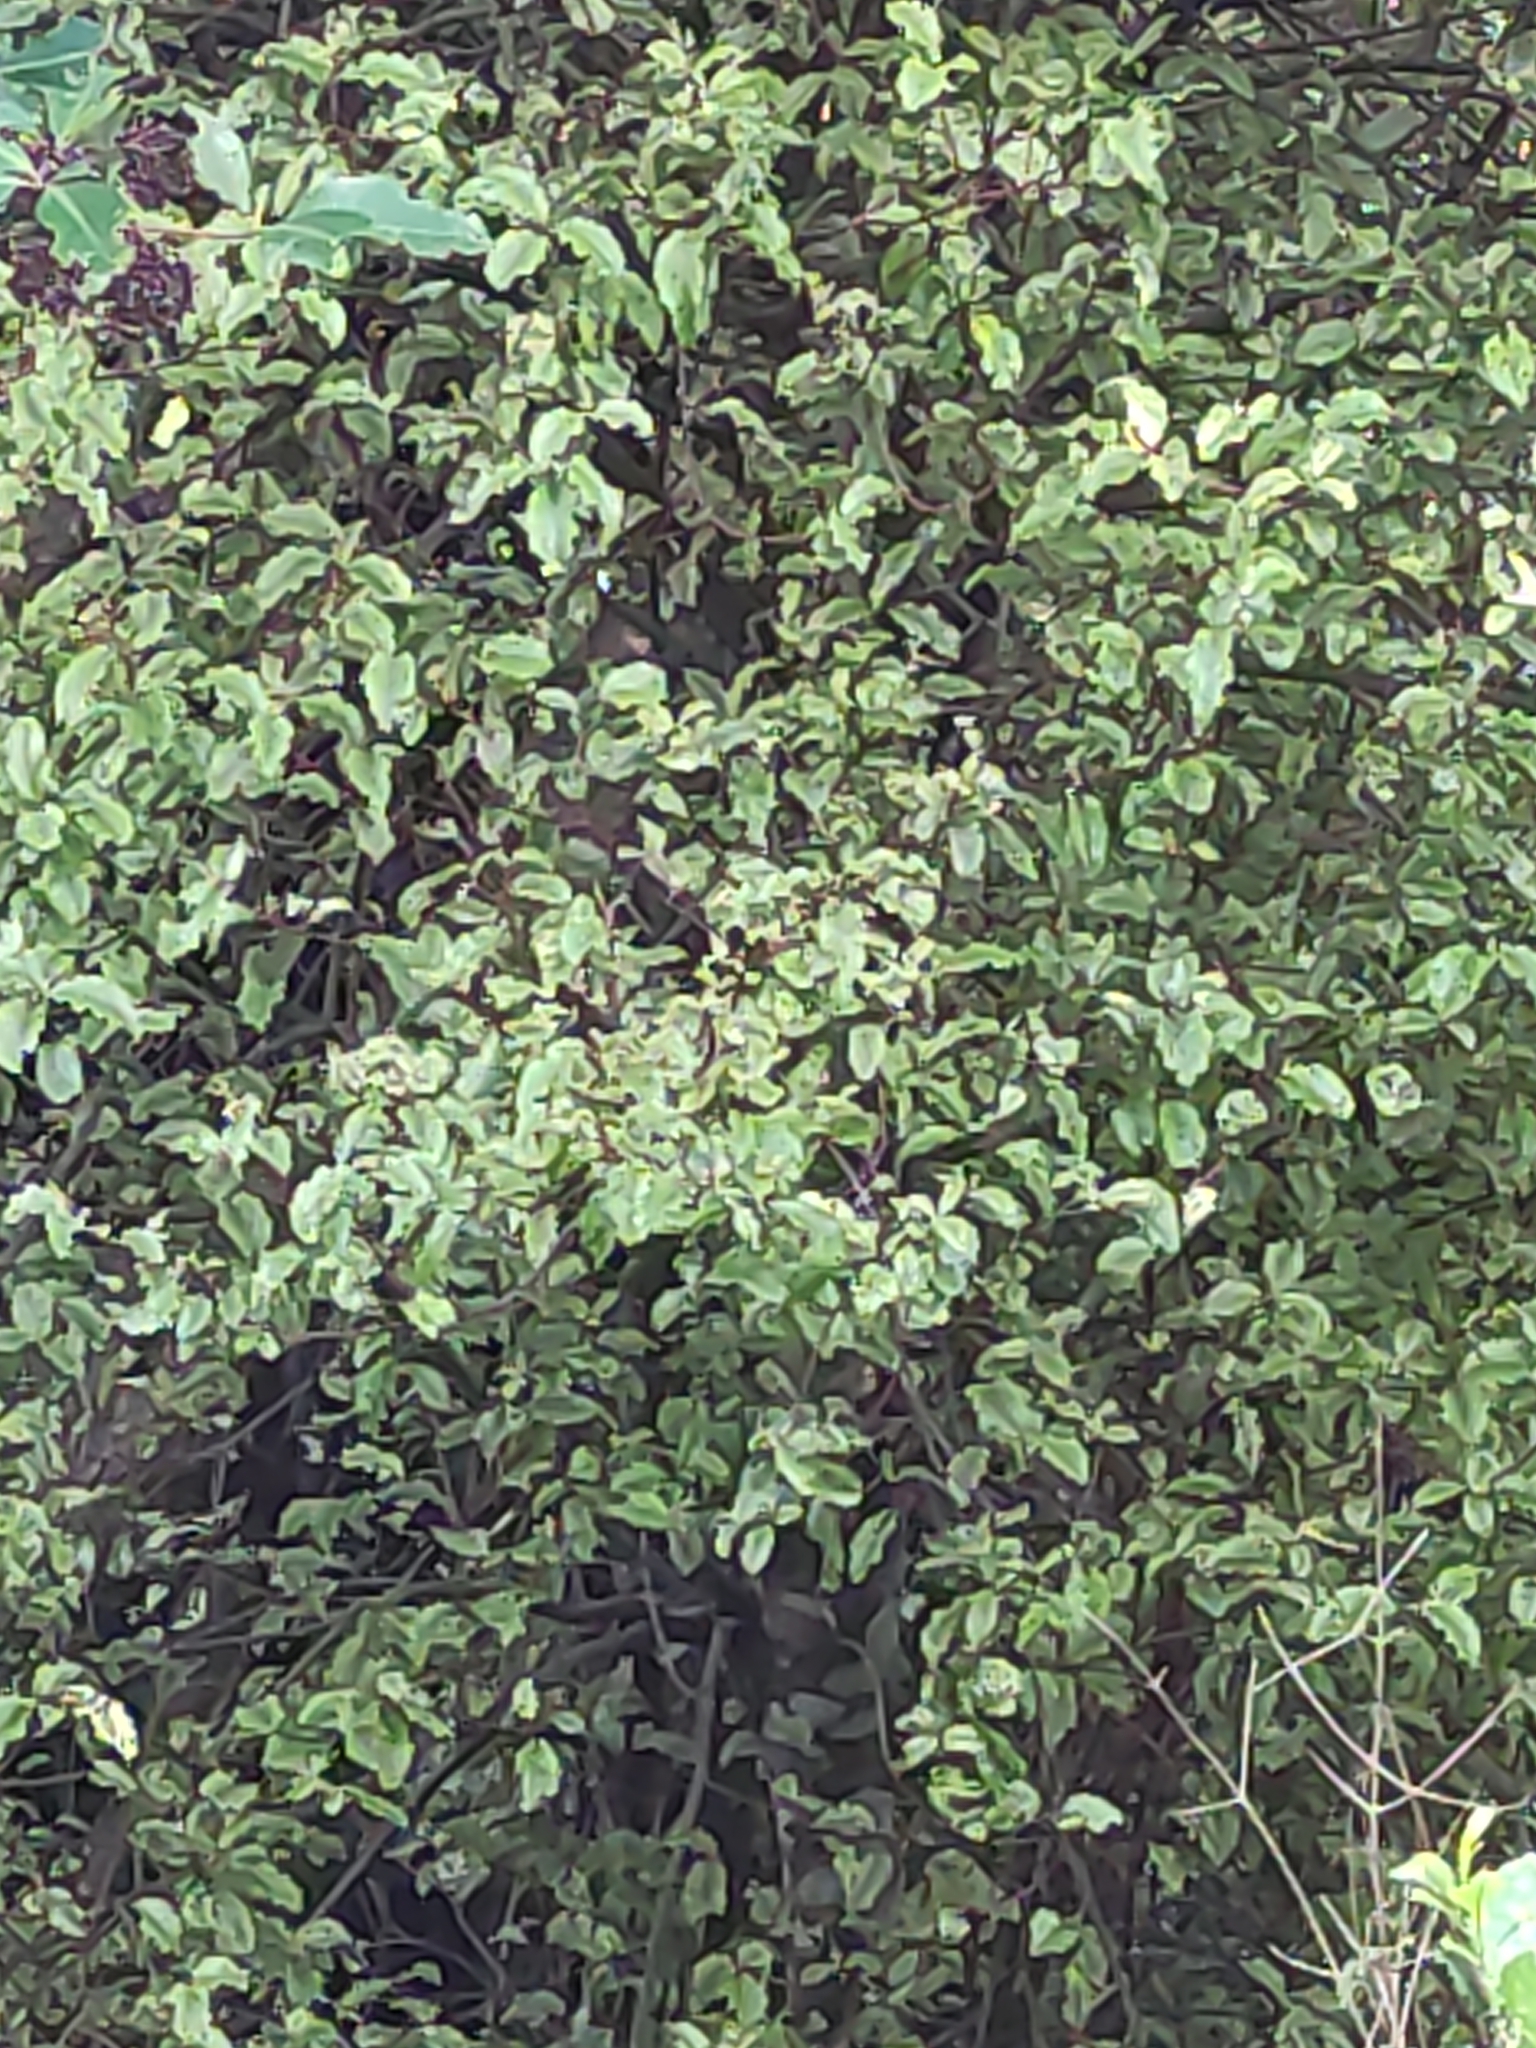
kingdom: Plantae
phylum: Tracheophyta
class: Magnoliopsida
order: Apiales
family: Pittosporaceae
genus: Pittosporum
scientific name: Pittosporum tenuifolium
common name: Kohuhu
